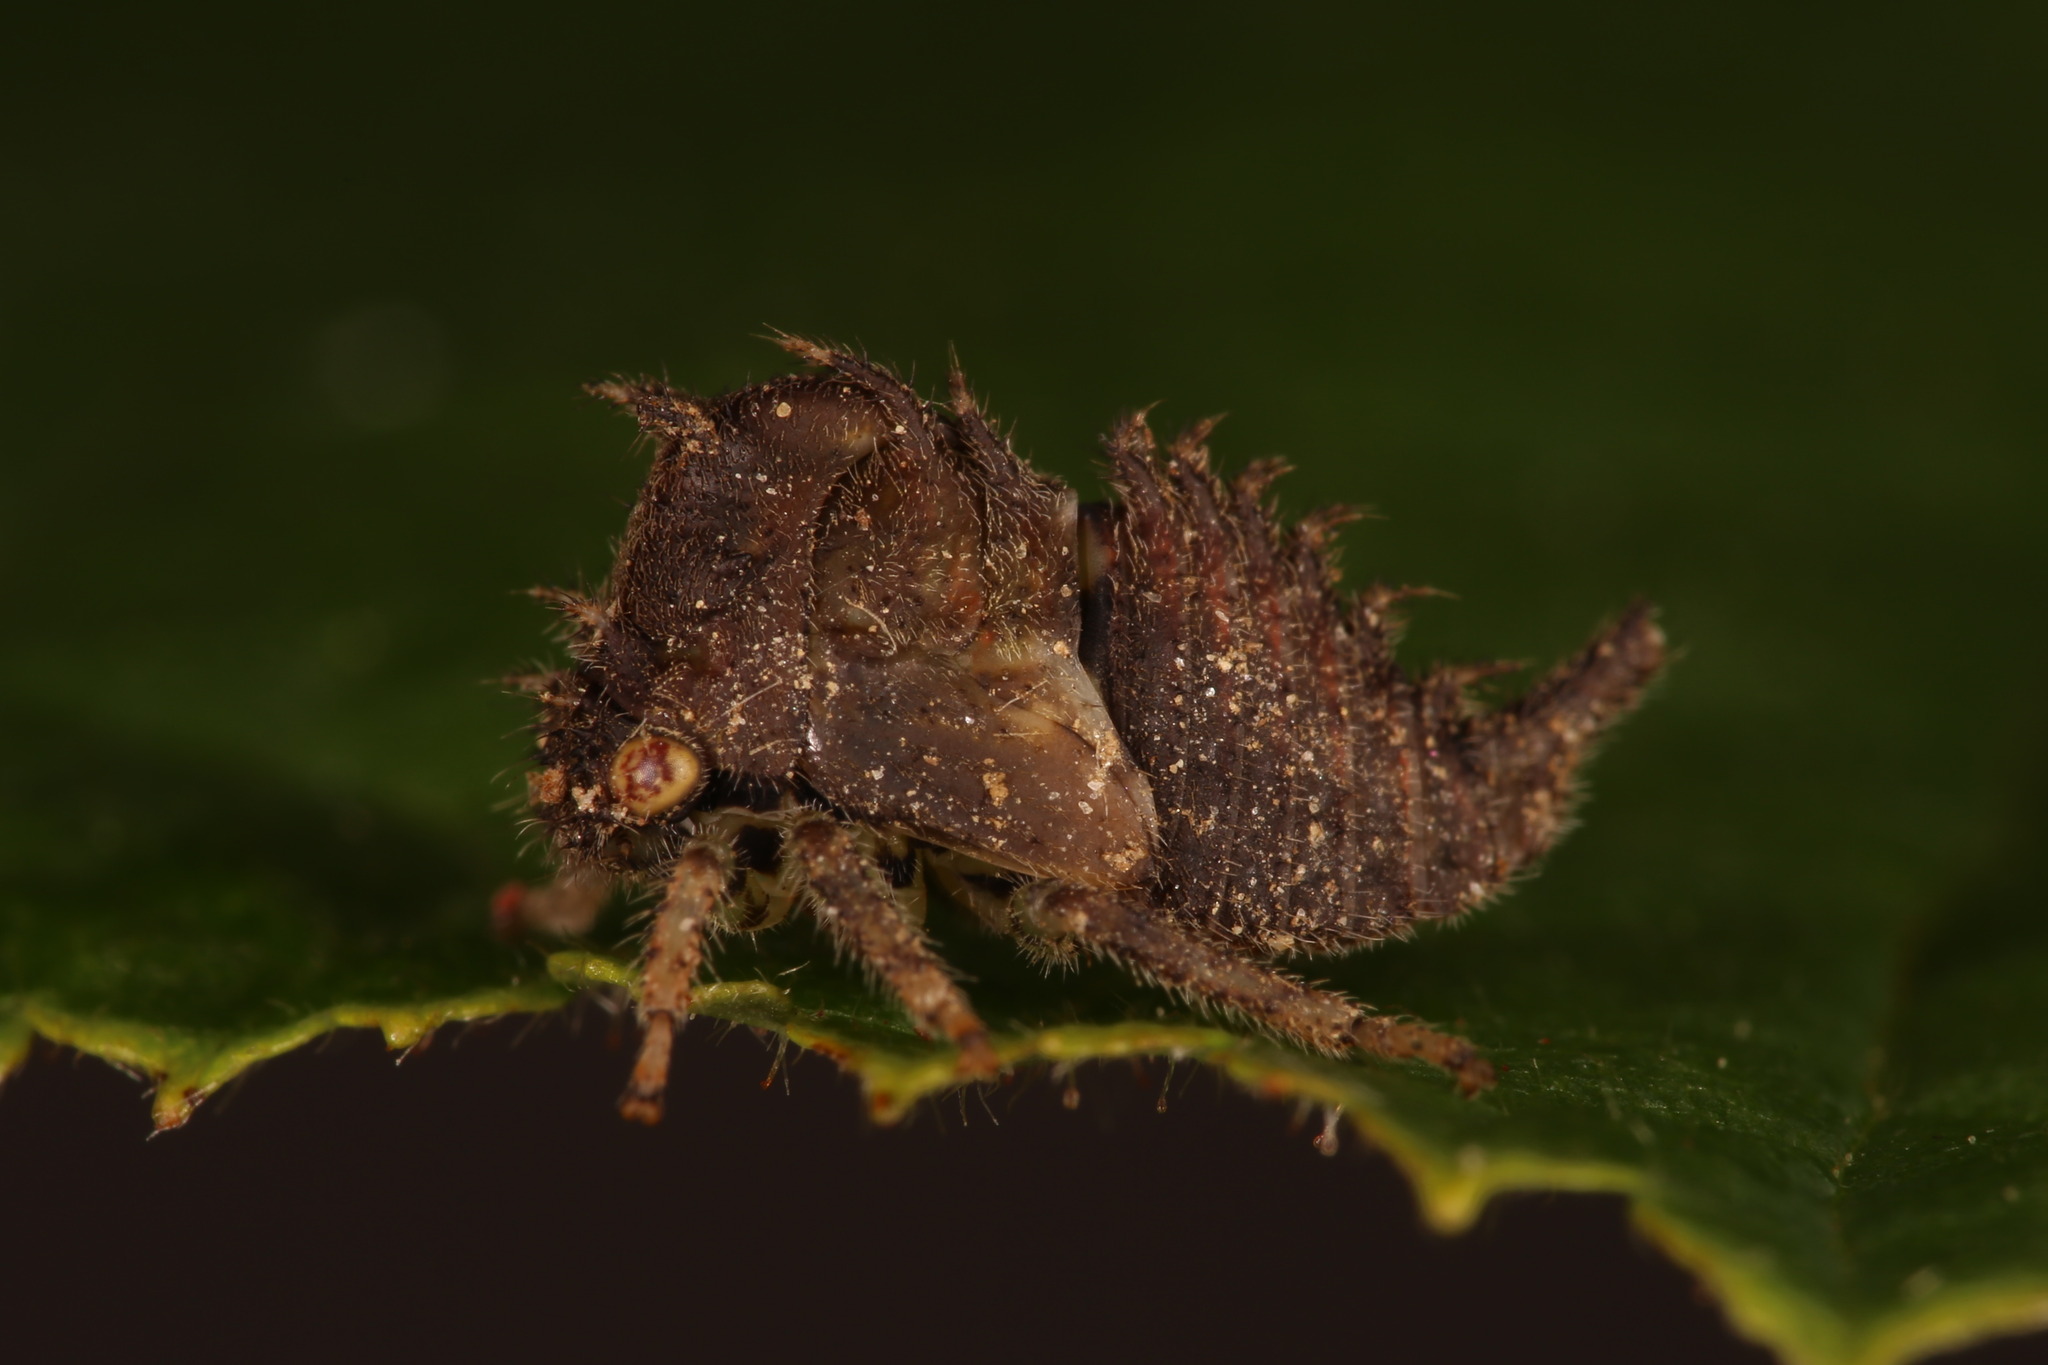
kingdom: Animalia
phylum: Arthropoda
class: Insecta
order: Hemiptera
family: Membracidae
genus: Stictocephala
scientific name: Stictocephala bisonia
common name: American buffalo treehopper
